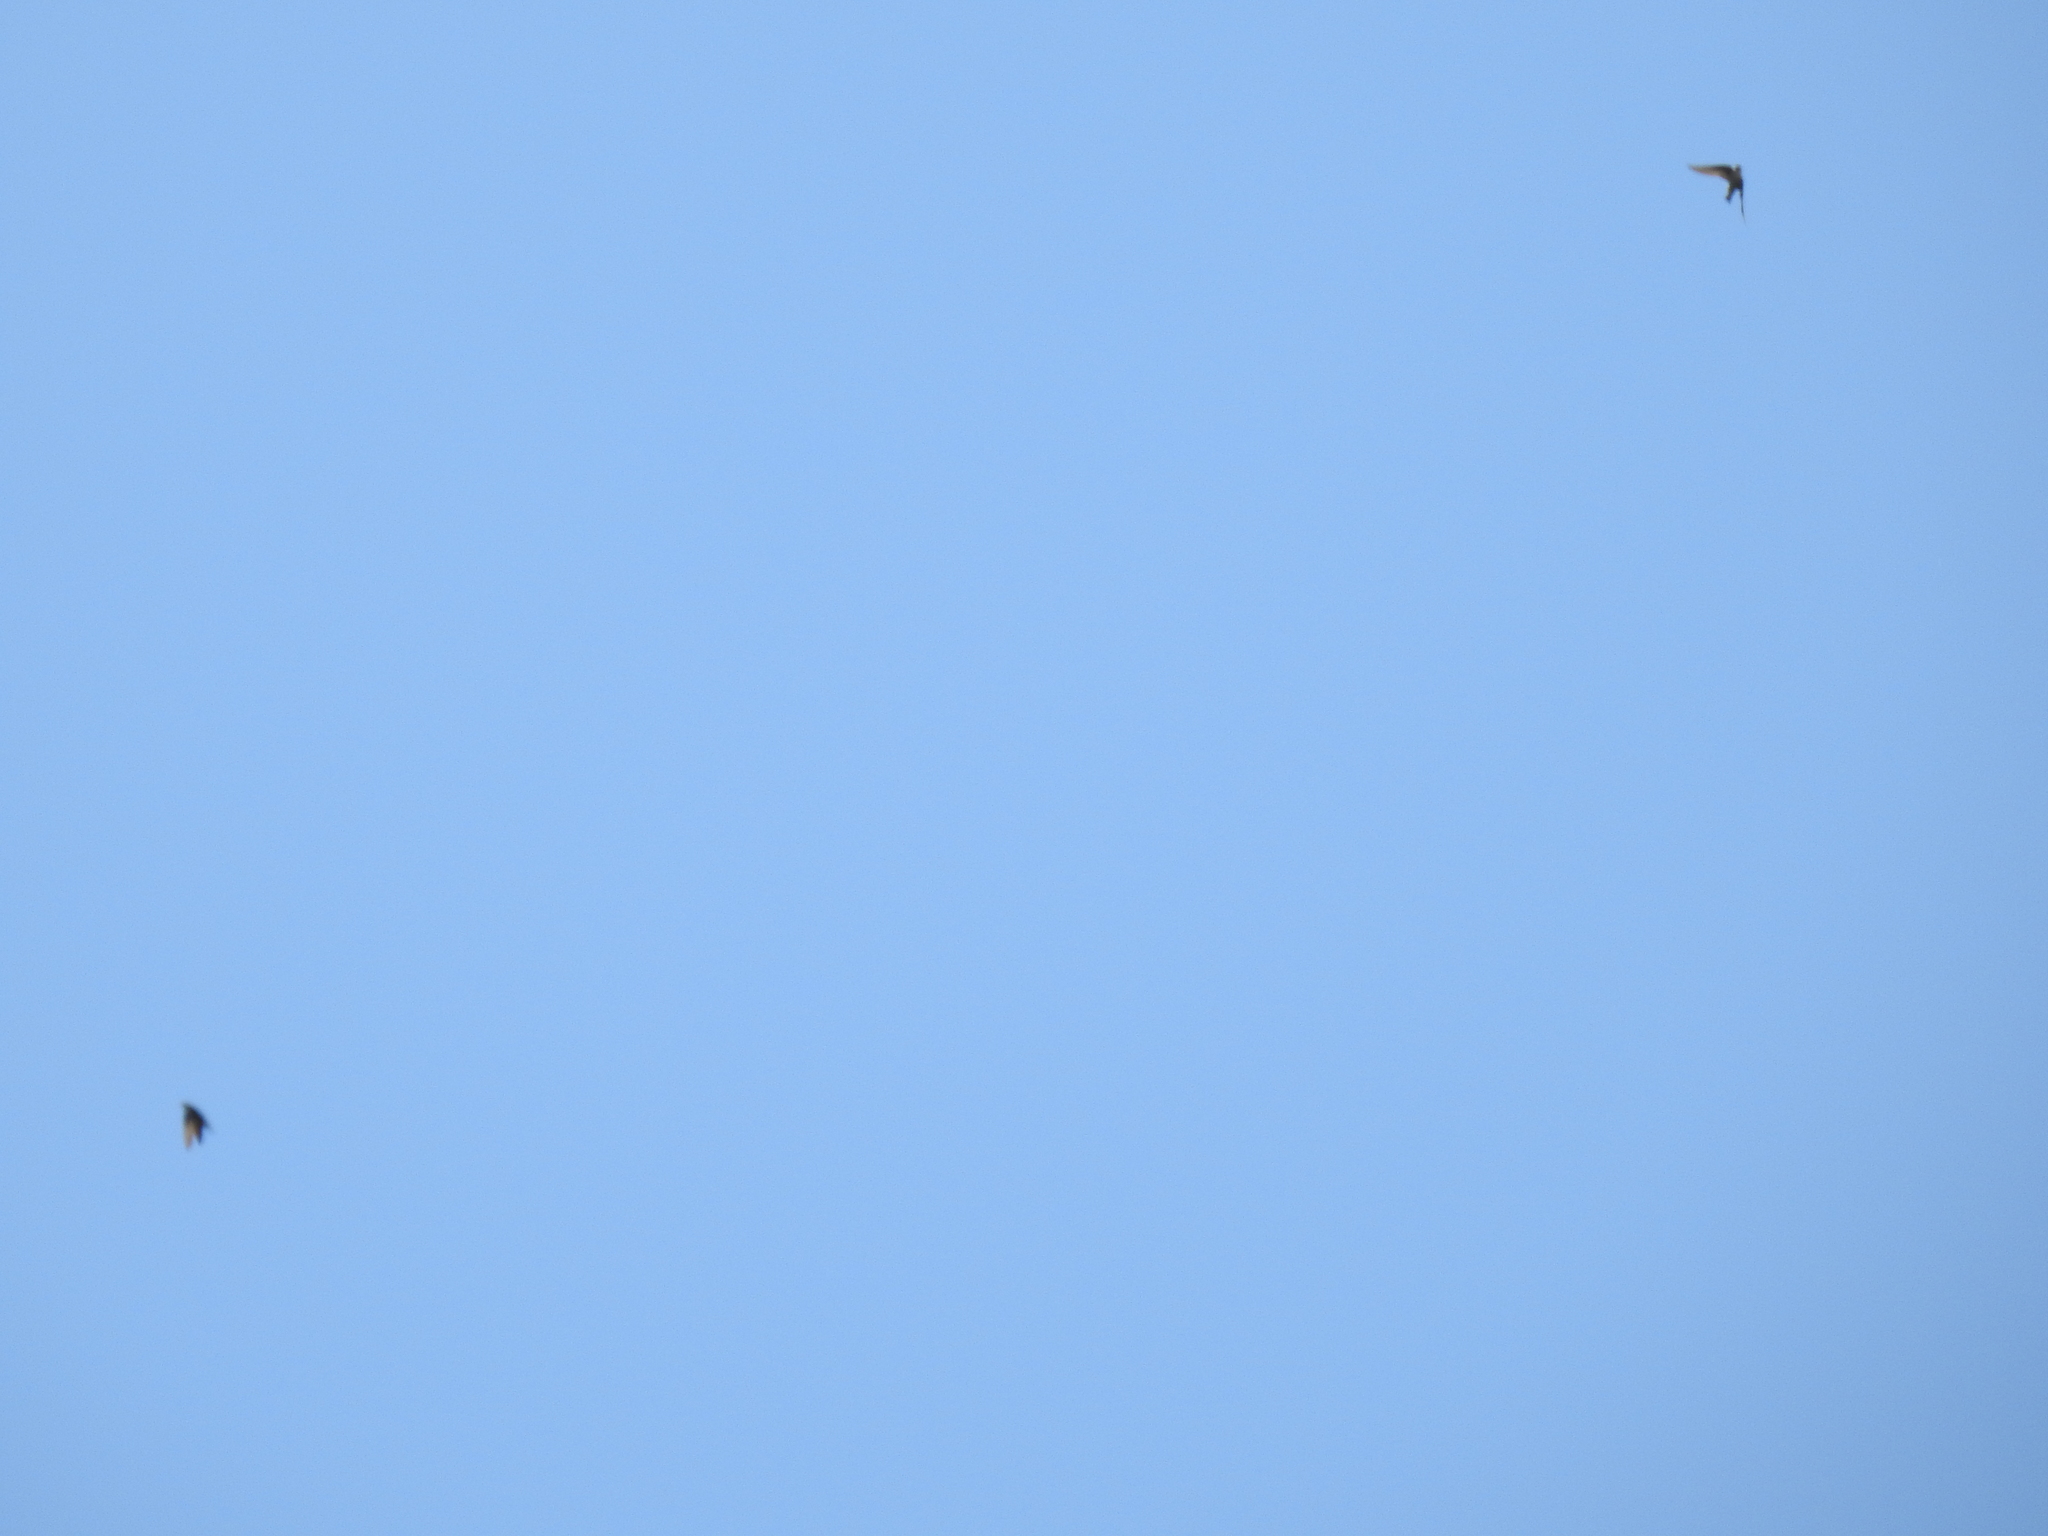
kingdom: Animalia
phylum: Chordata
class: Aves
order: Passeriformes
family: Hirundinidae
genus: Tachycineta
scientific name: Tachycineta thalassina
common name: Violet-green swallow
